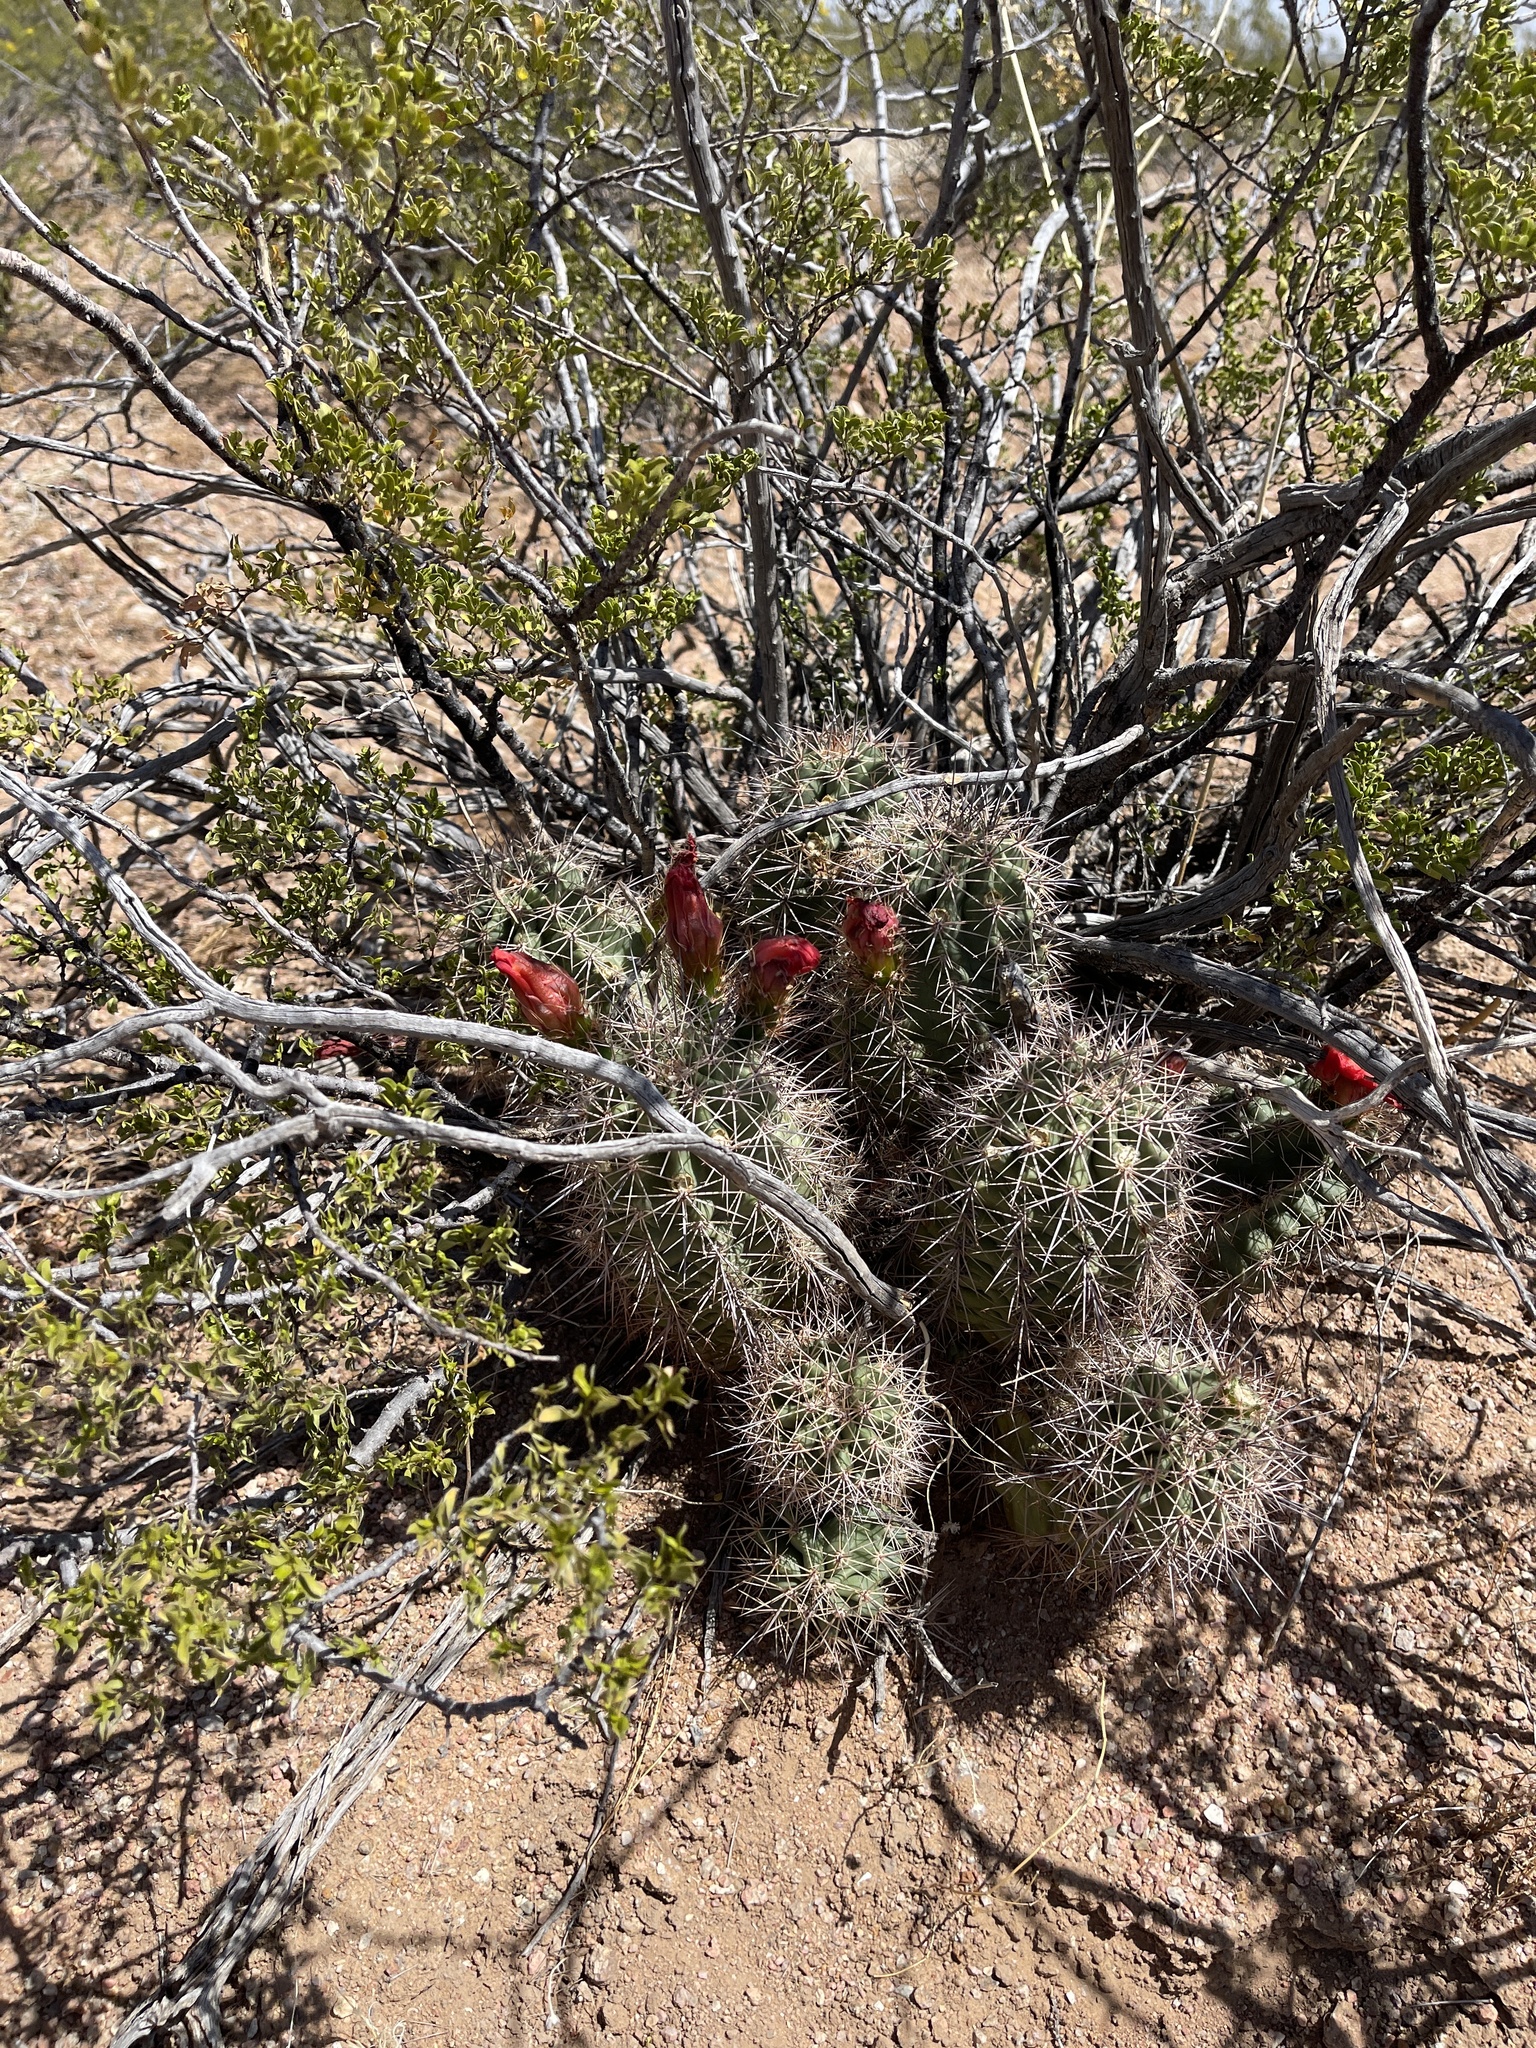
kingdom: Plantae
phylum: Tracheophyta
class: Magnoliopsida
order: Caryophyllales
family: Cactaceae
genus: Echinocereus
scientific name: Echinocereus coccineus
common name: Scarlet hedgehog cactus
